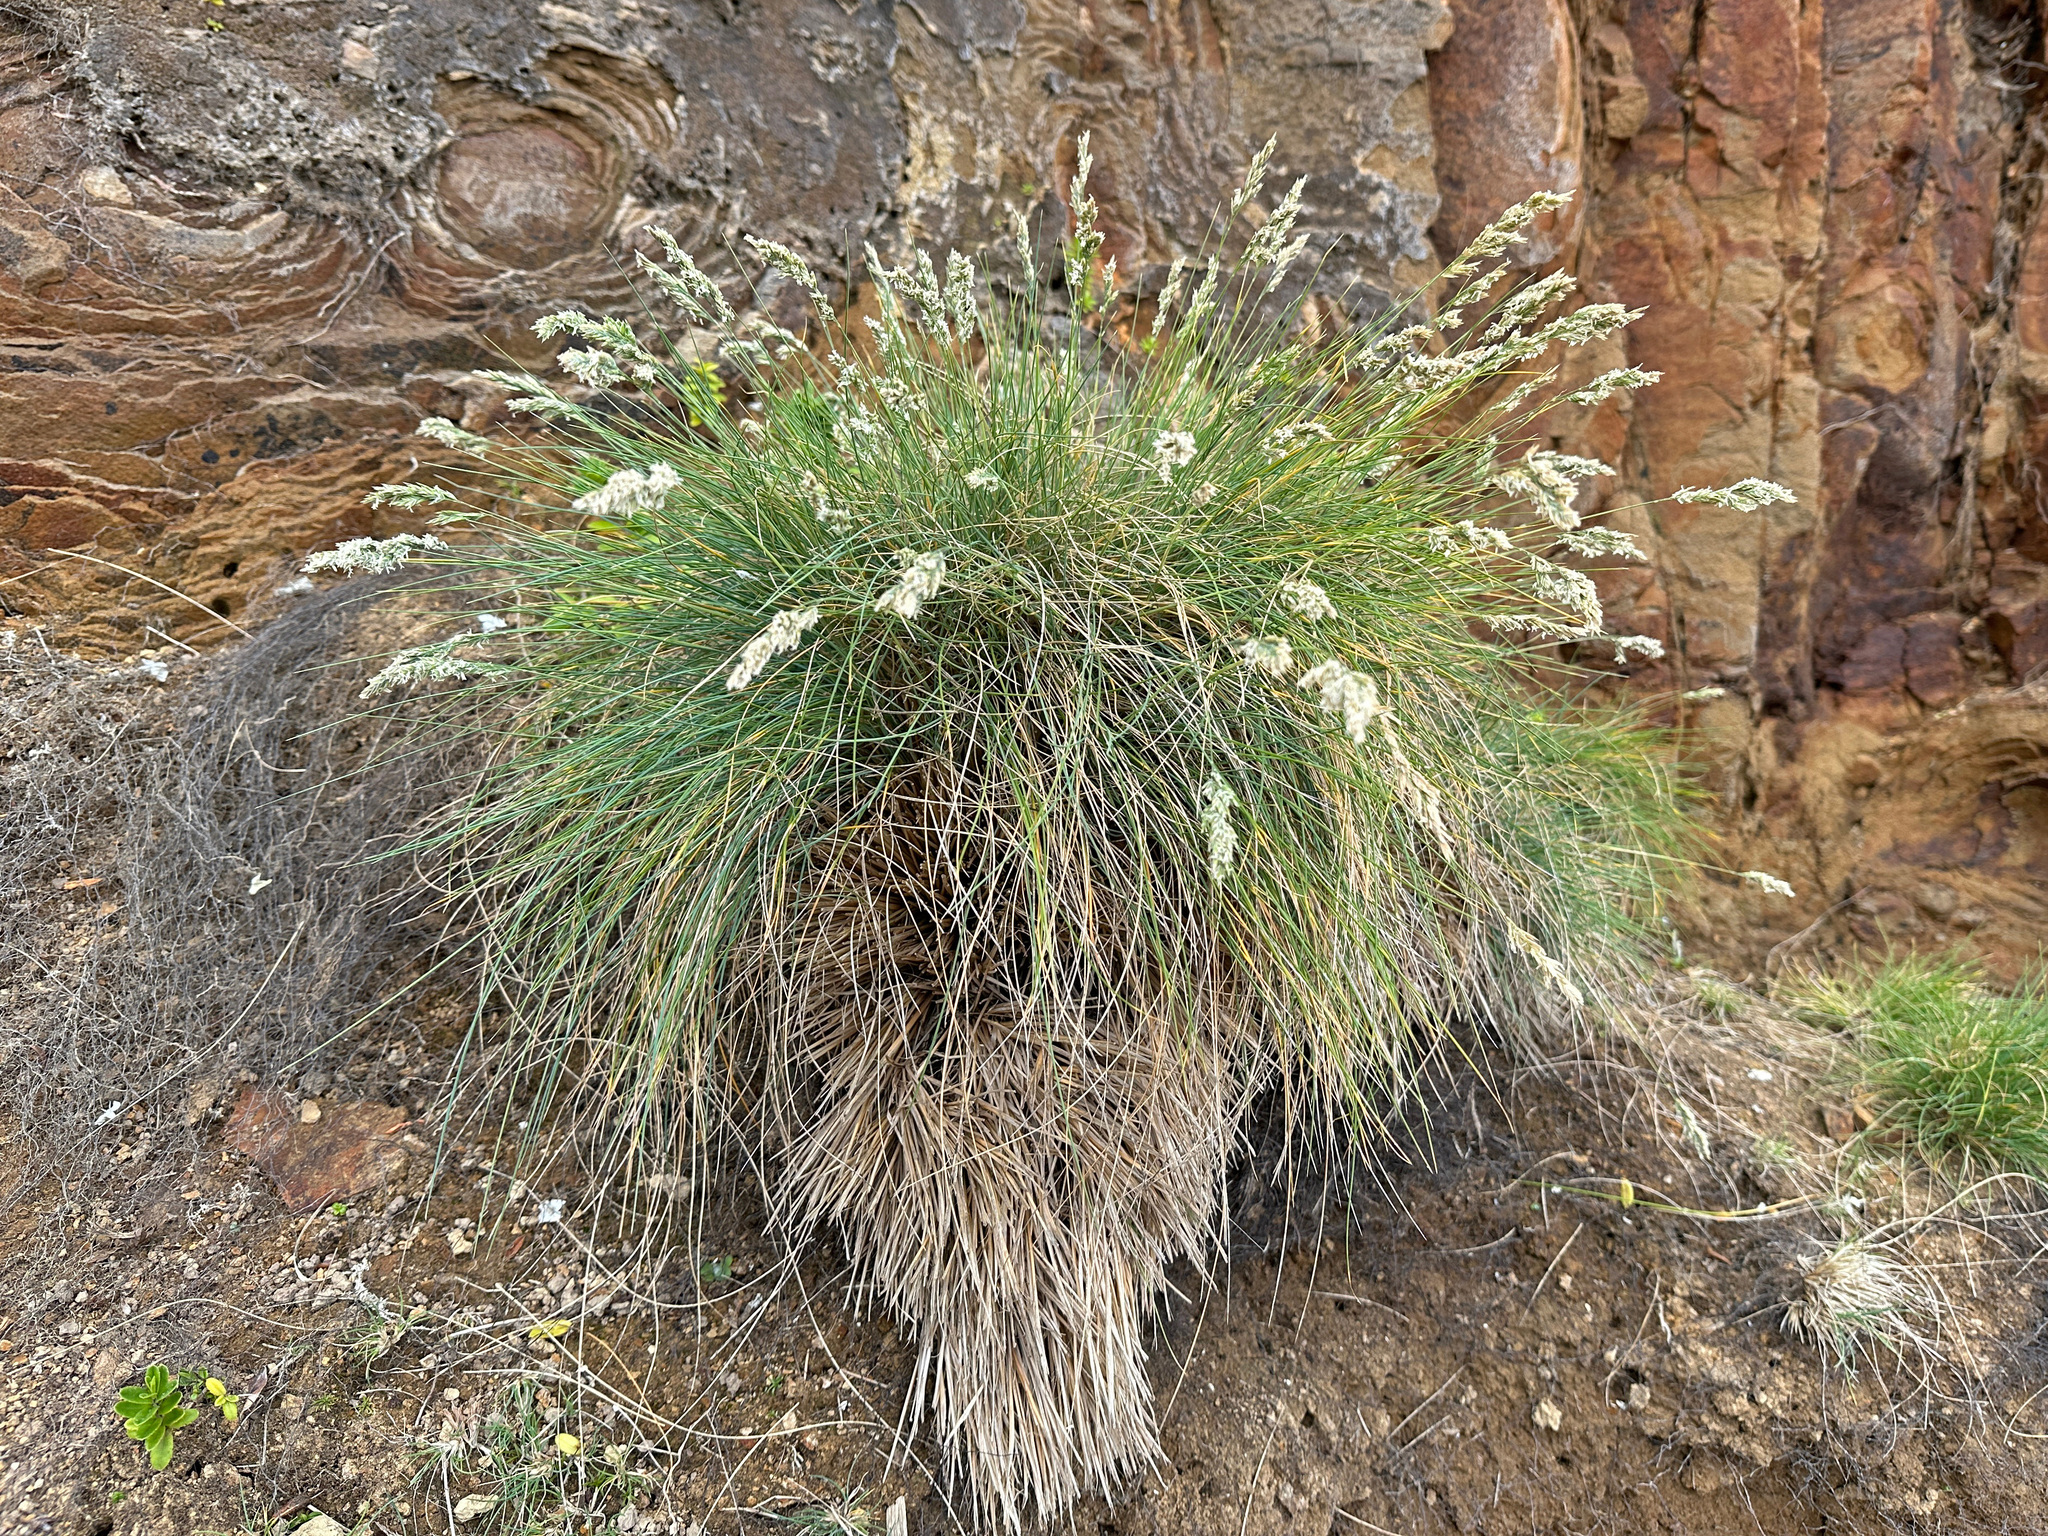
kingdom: Plantae
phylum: Tracheophyta
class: Liliopsida
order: Poales
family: Poaceae
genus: Poa
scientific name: Poa astonii
